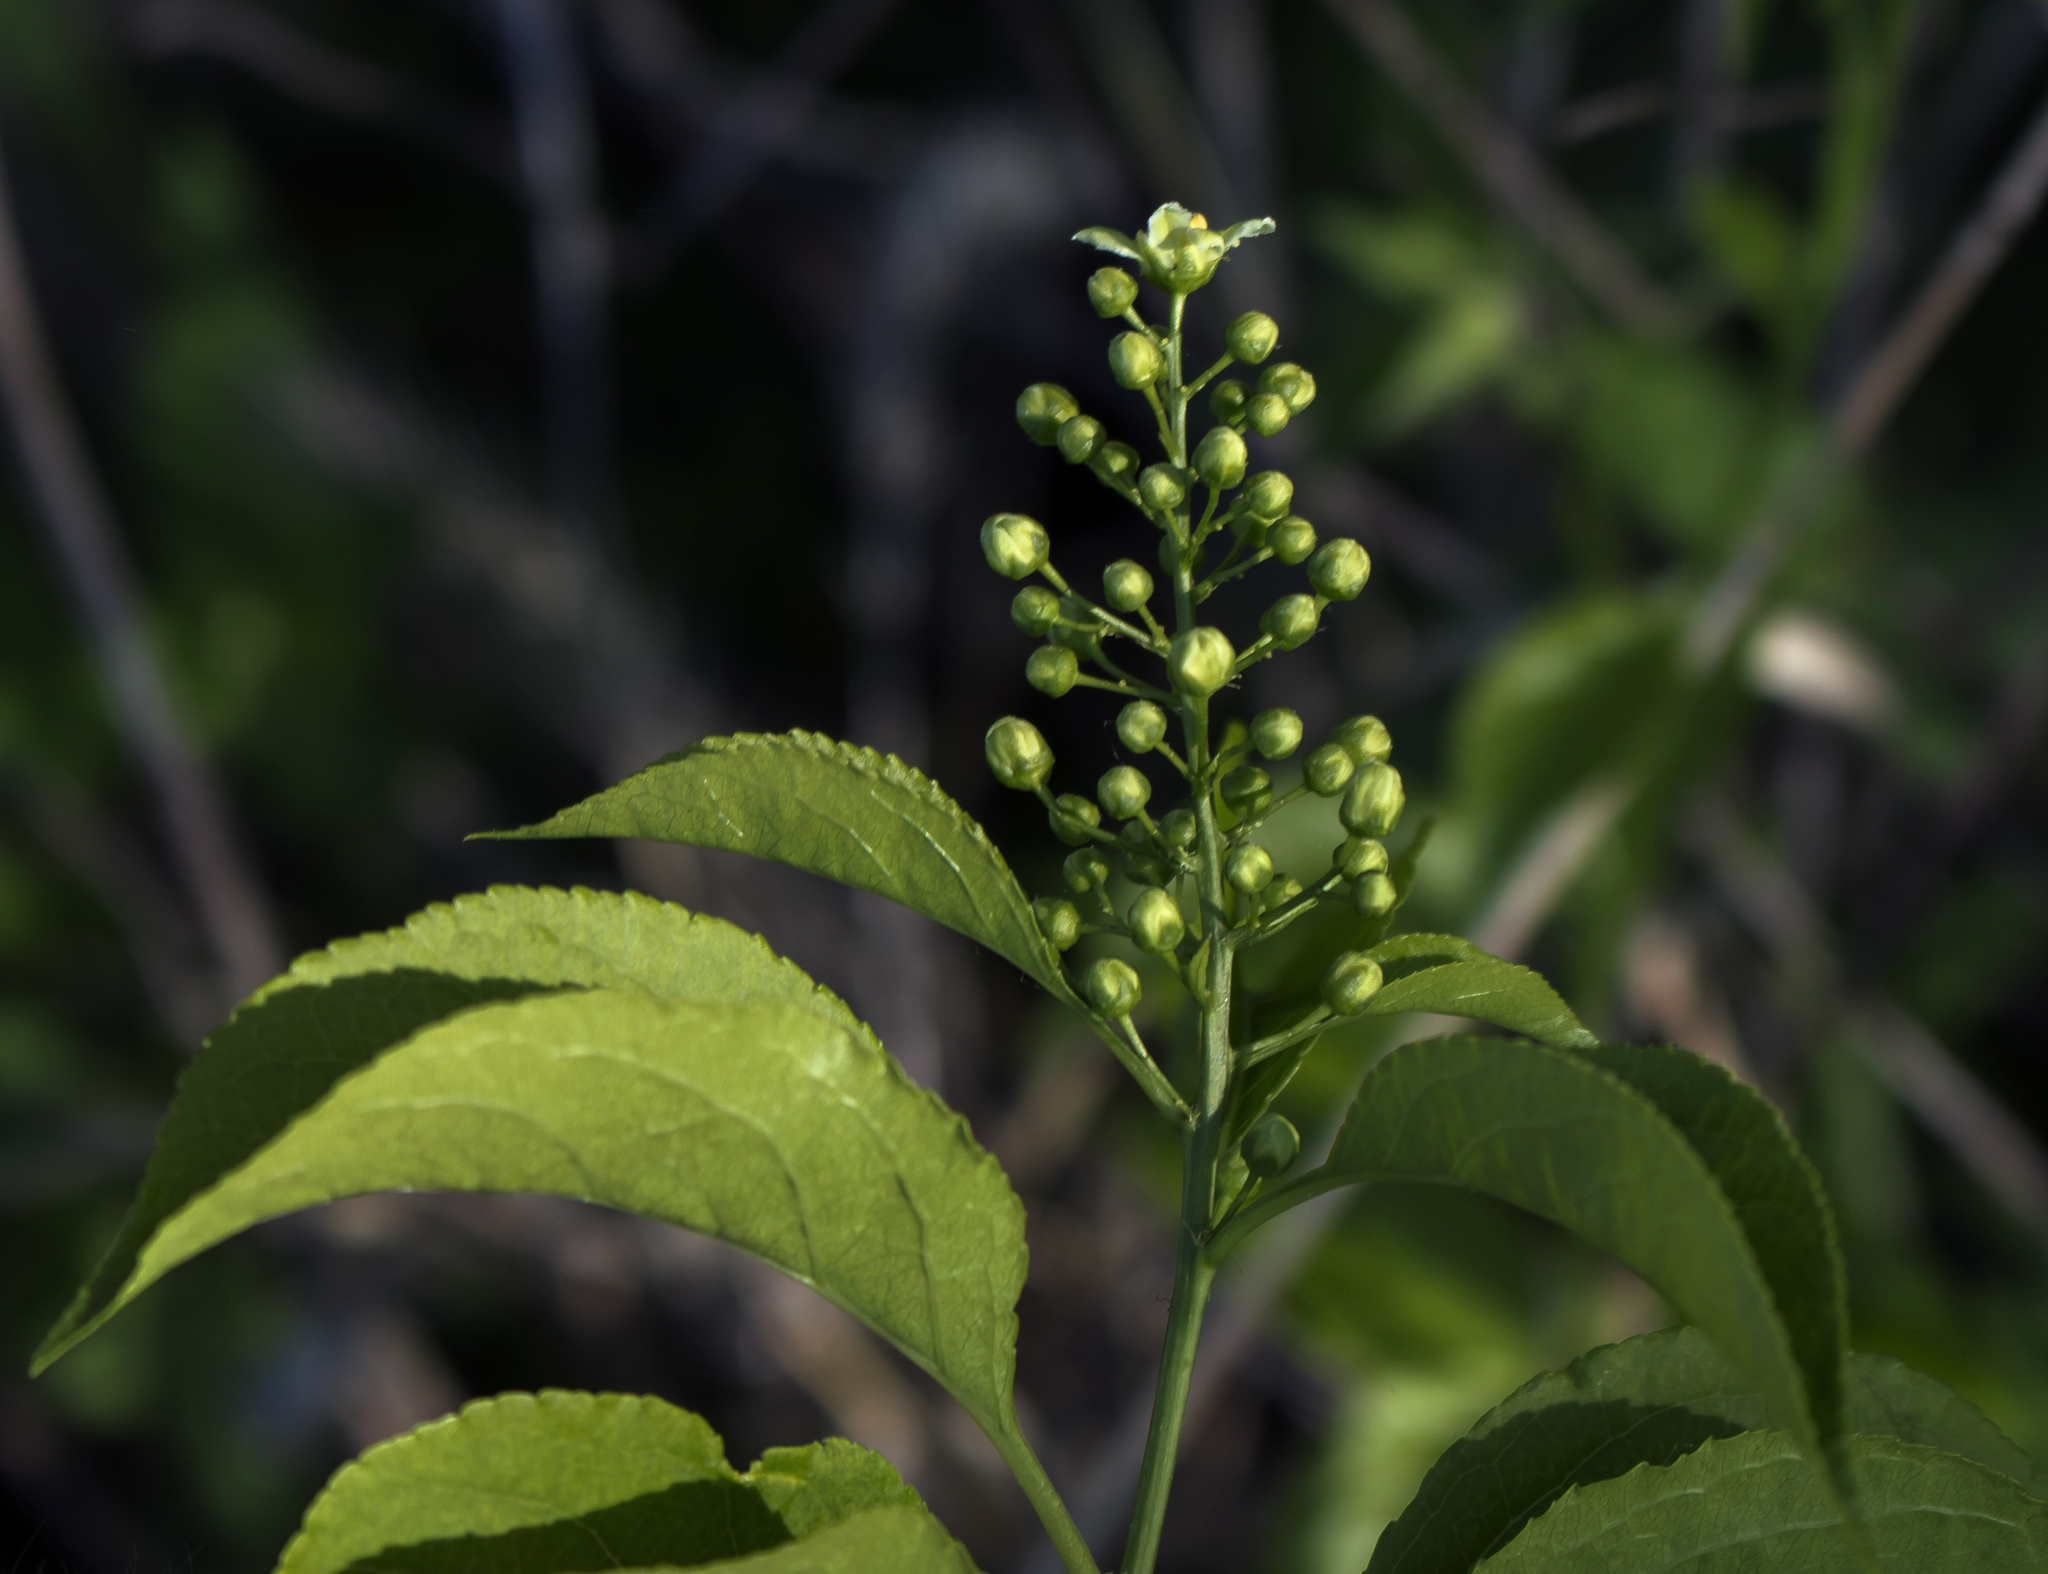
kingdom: Plantae
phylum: Tracheophyta
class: Magnoliopsida
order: Celastrales
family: Celastraceae
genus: Celastrus
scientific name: Celastrus scandens
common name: American bittersweet
